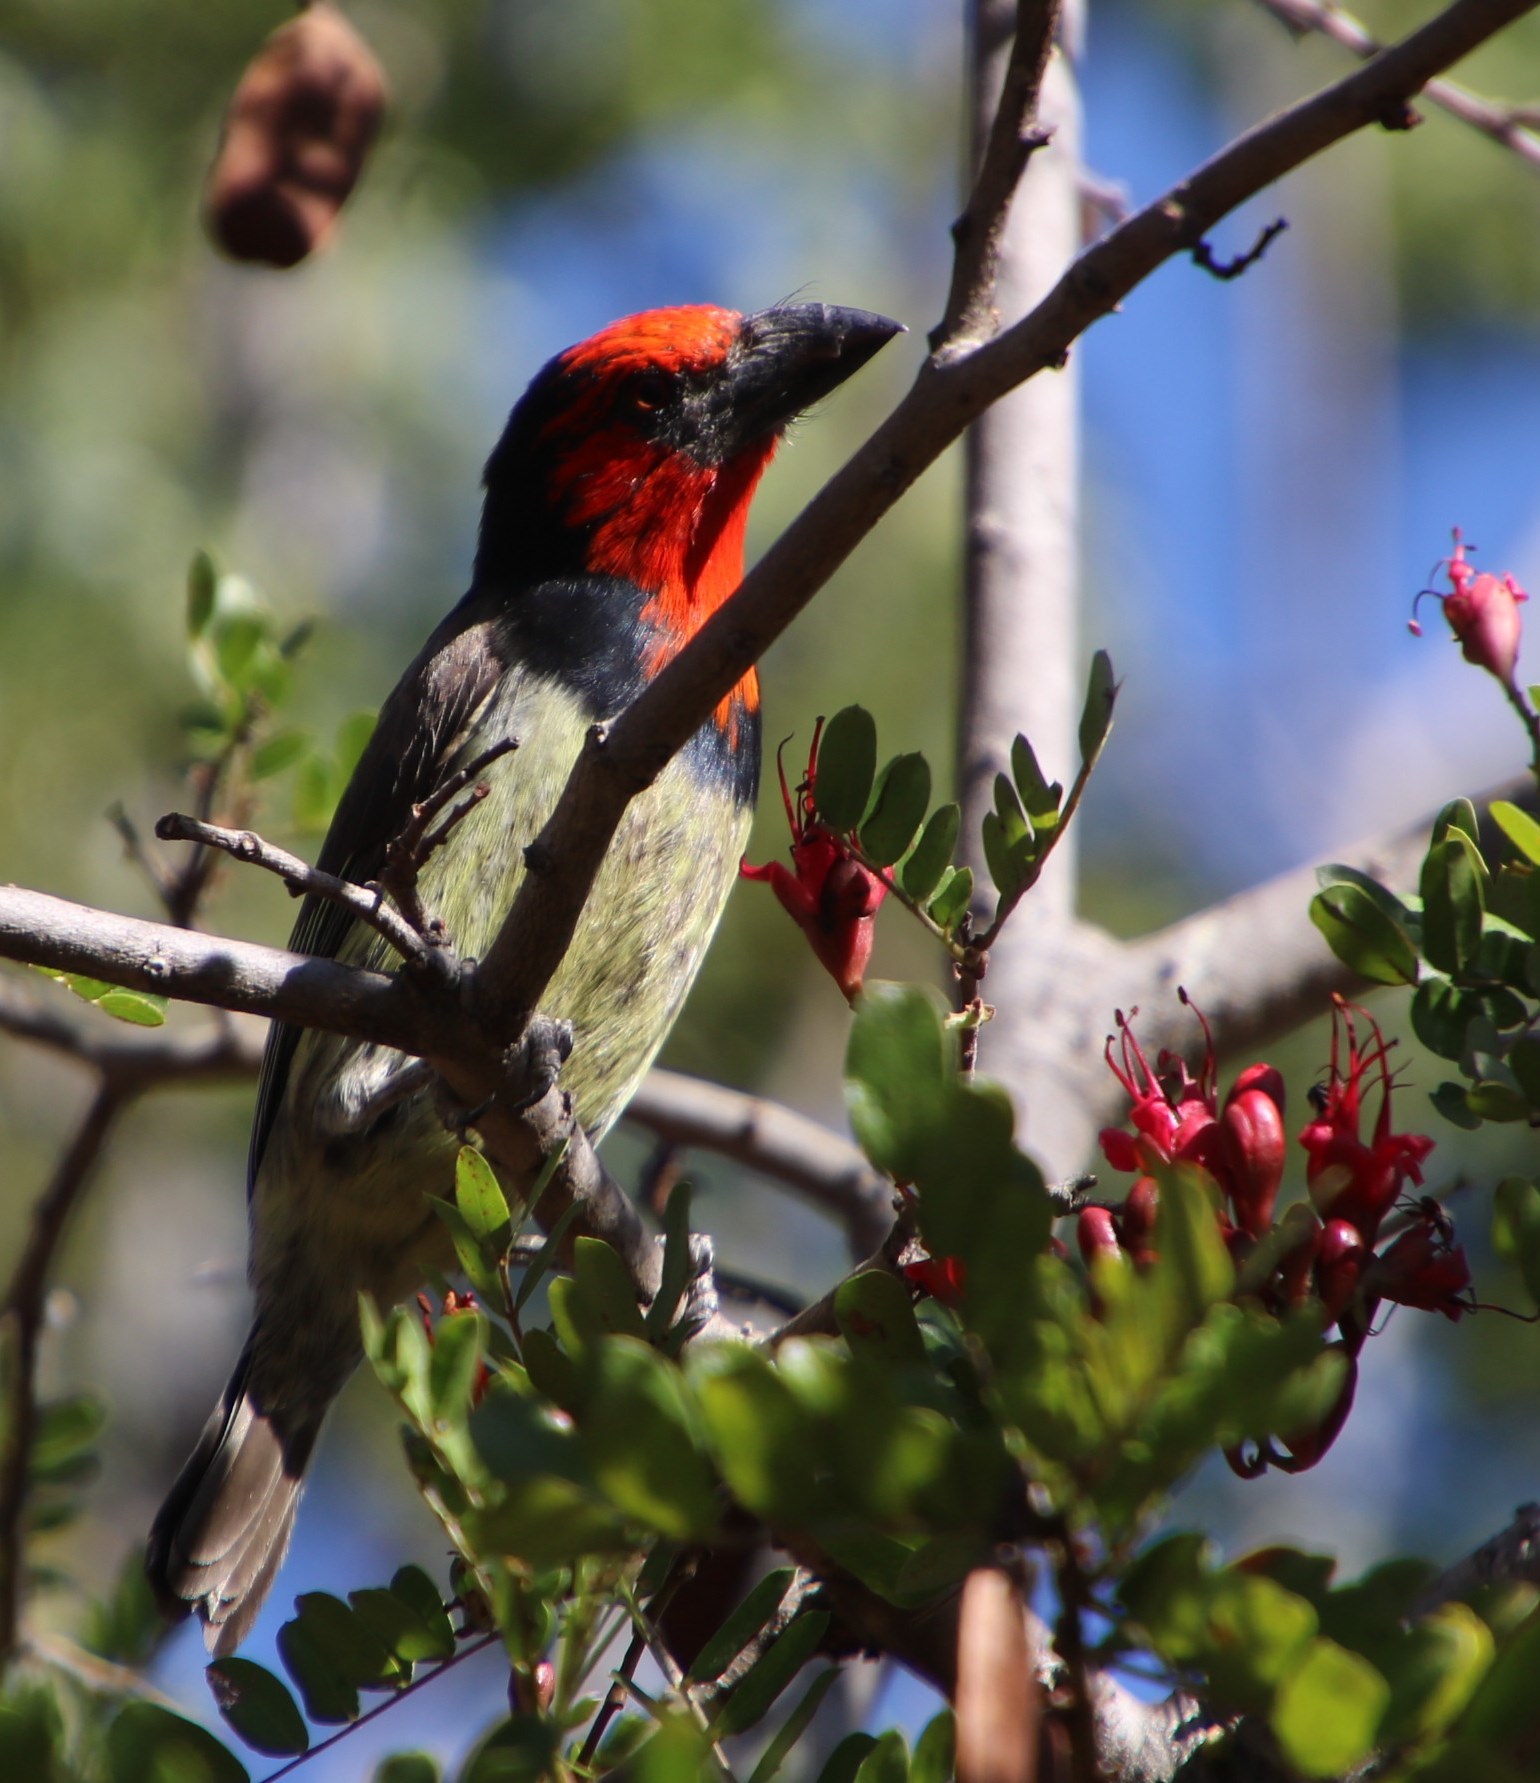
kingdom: Animalia
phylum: Chordata
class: Aves
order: Piciformes
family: Lybiidae
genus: Lybius
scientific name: Lybius torquatus
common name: Black-collared barbet
